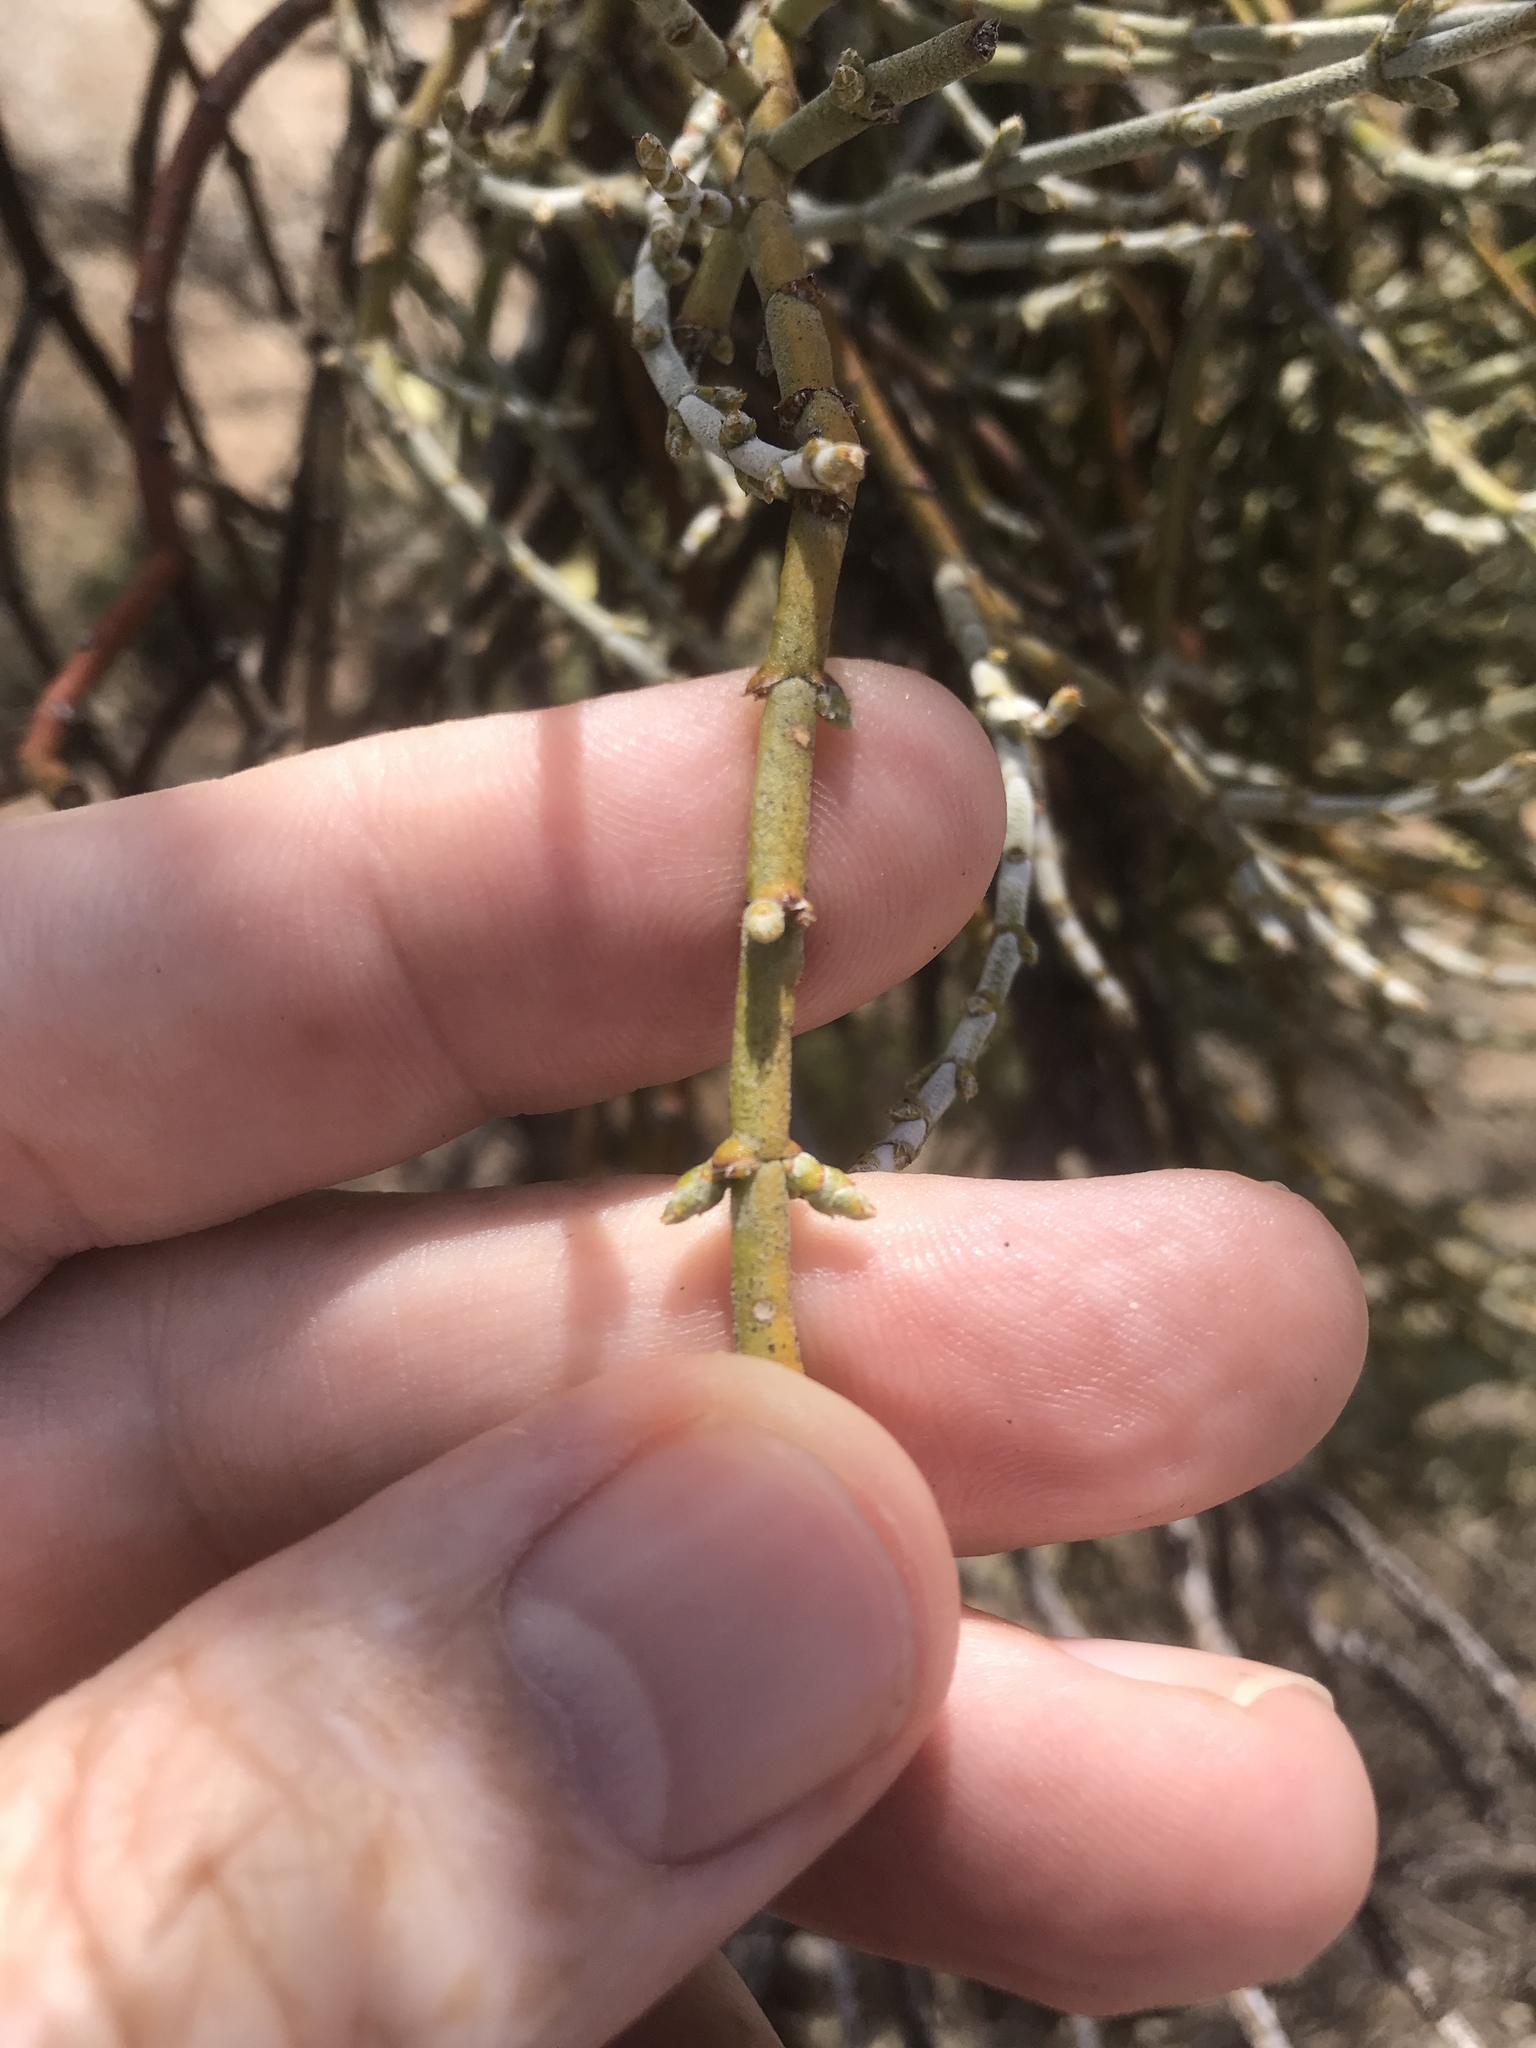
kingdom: Plantae
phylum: Tracheophyta
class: Magnoliopsida
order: Santalales
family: Viscaceae
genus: Phoradendron
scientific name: Phoradendron californicum
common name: Acacia mistletoe
